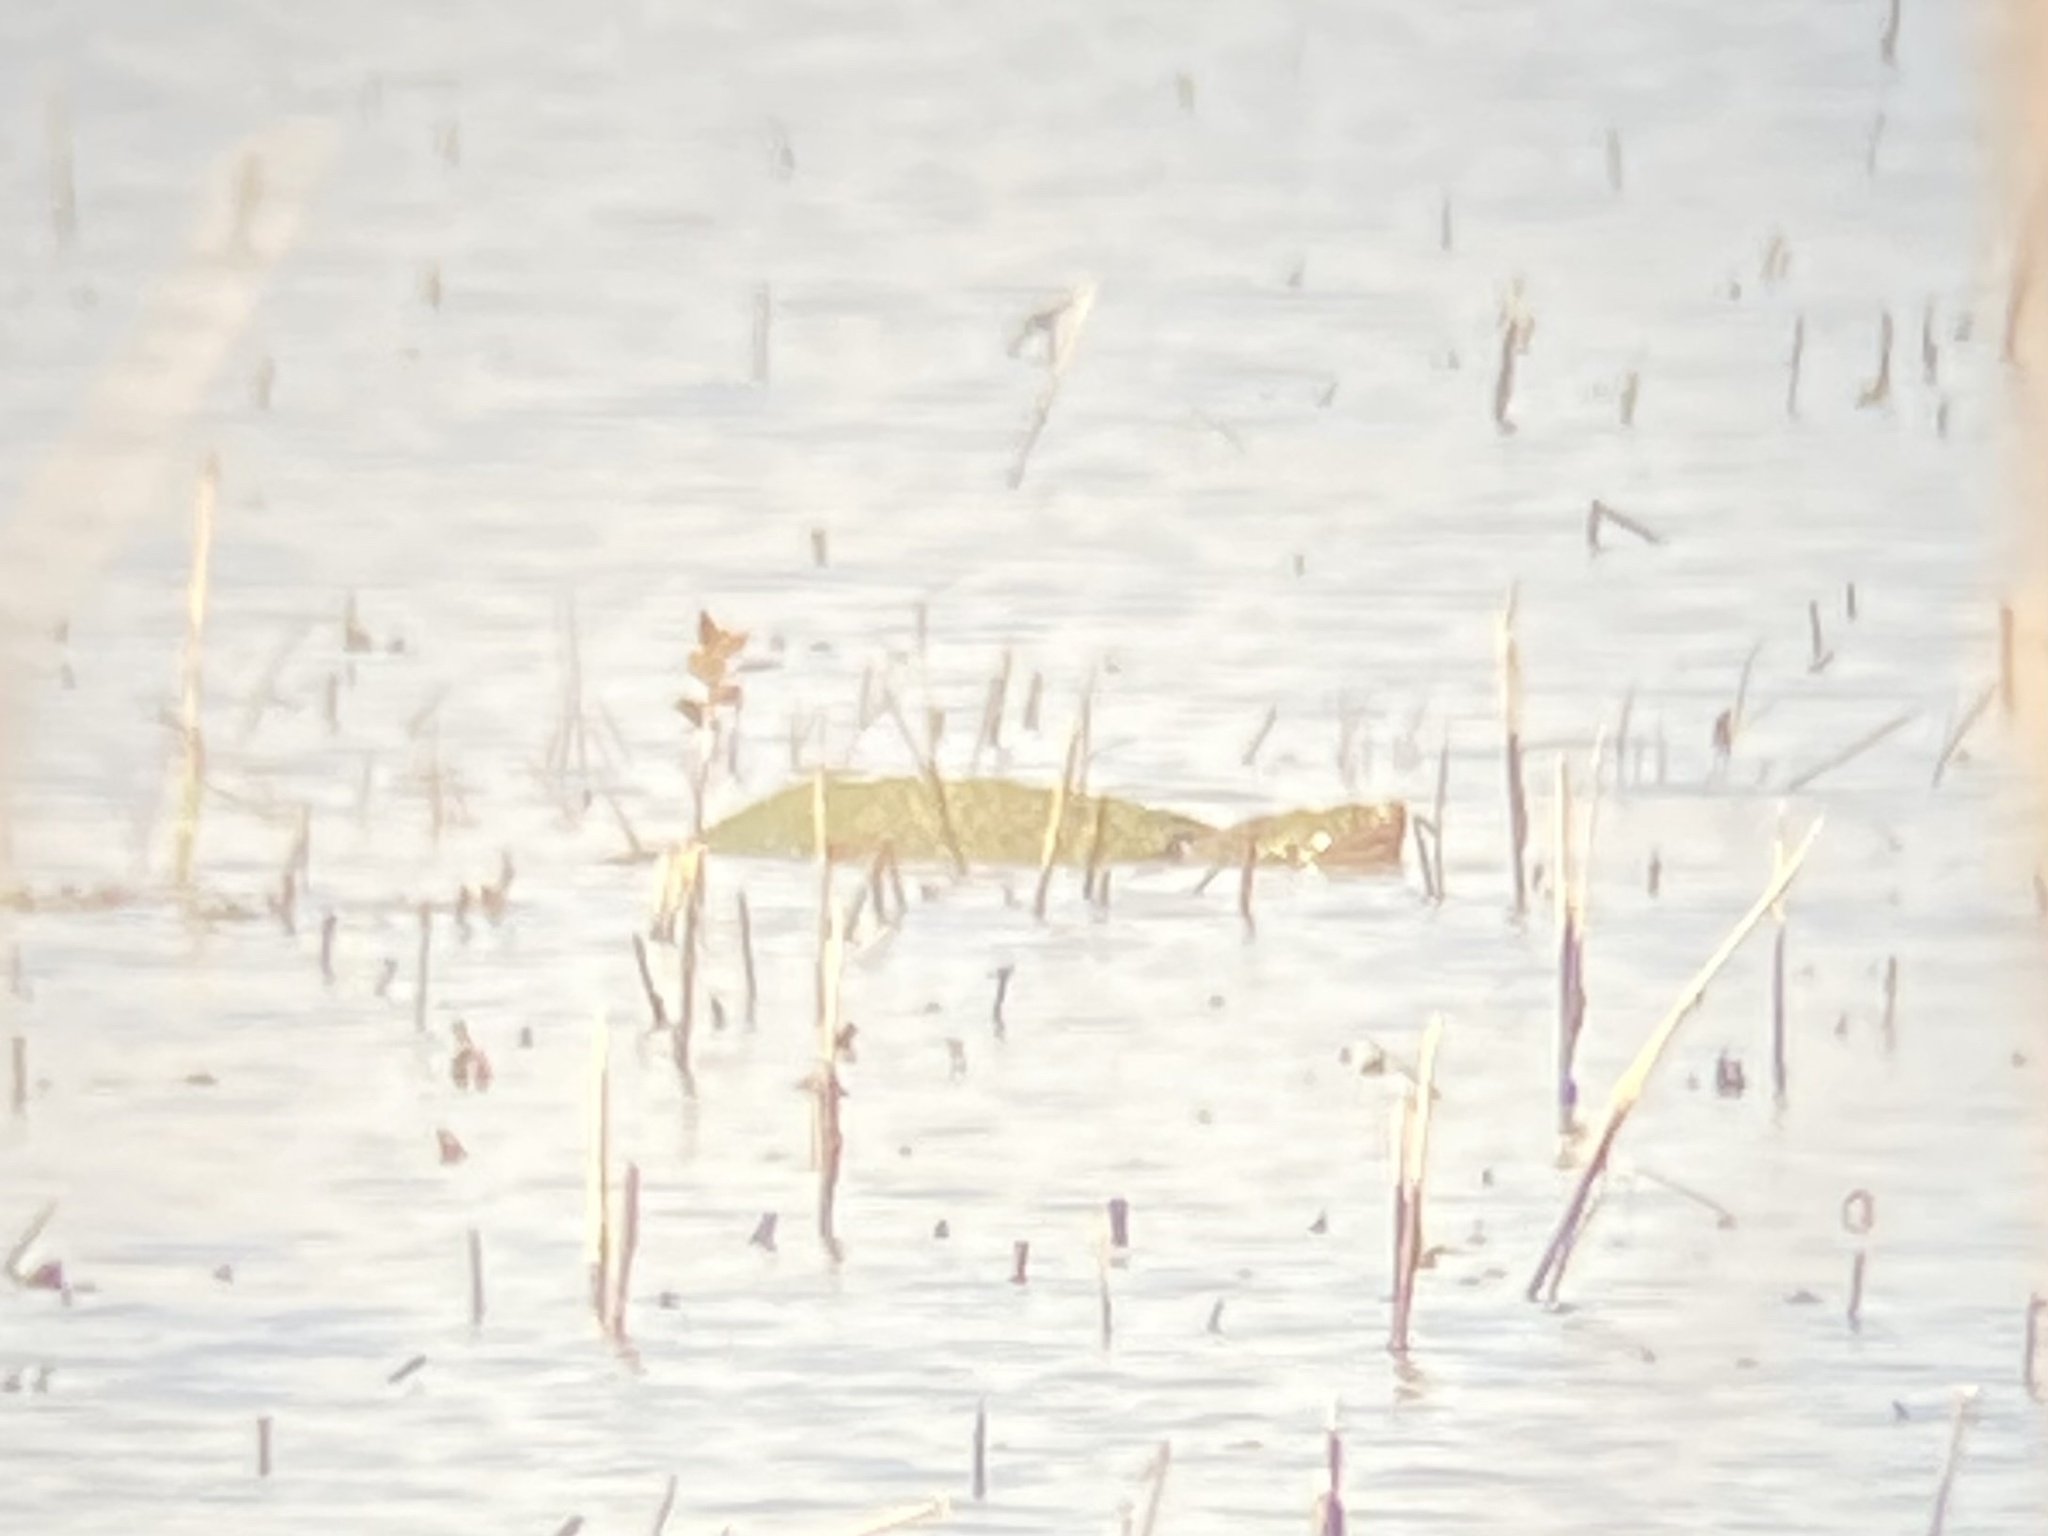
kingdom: Animalia
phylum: Chordata
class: Testudines
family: Chelydridae
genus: Chelydra
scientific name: Chelydra serpentina
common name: Common snapping turtle
